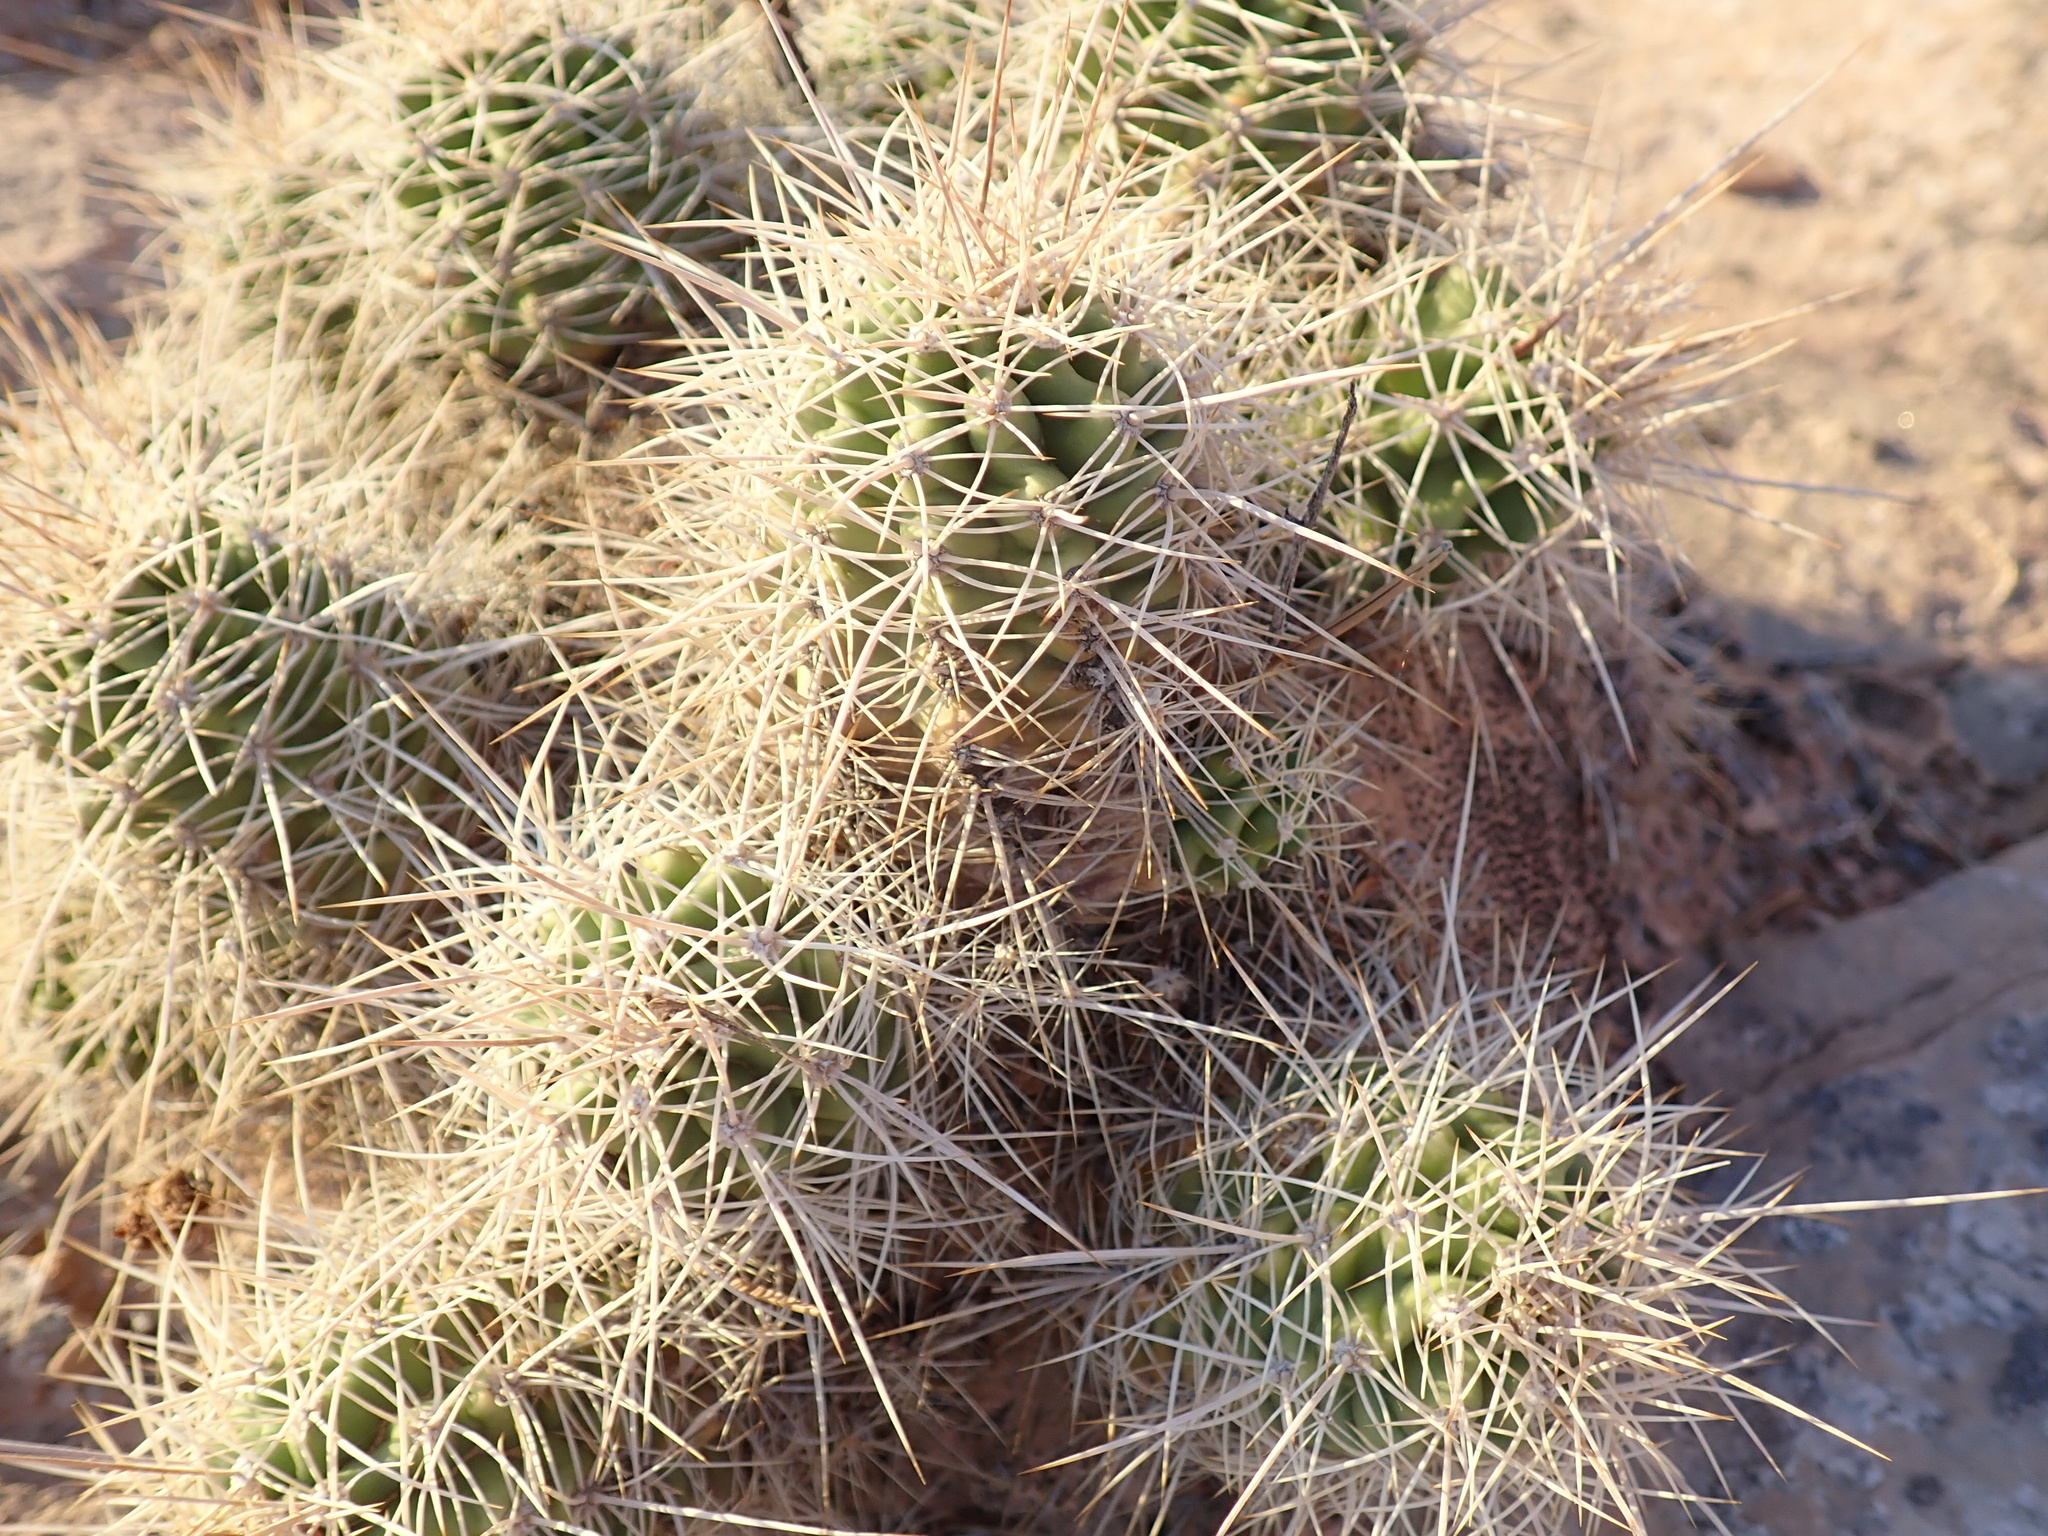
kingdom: Plantae
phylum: Tracheophyta
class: Magnoliopsida
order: Caryophyllales
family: Cactaceae
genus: Echinocereus
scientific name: Echinocereus triglochidiatus
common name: Claretcup hedgehog
